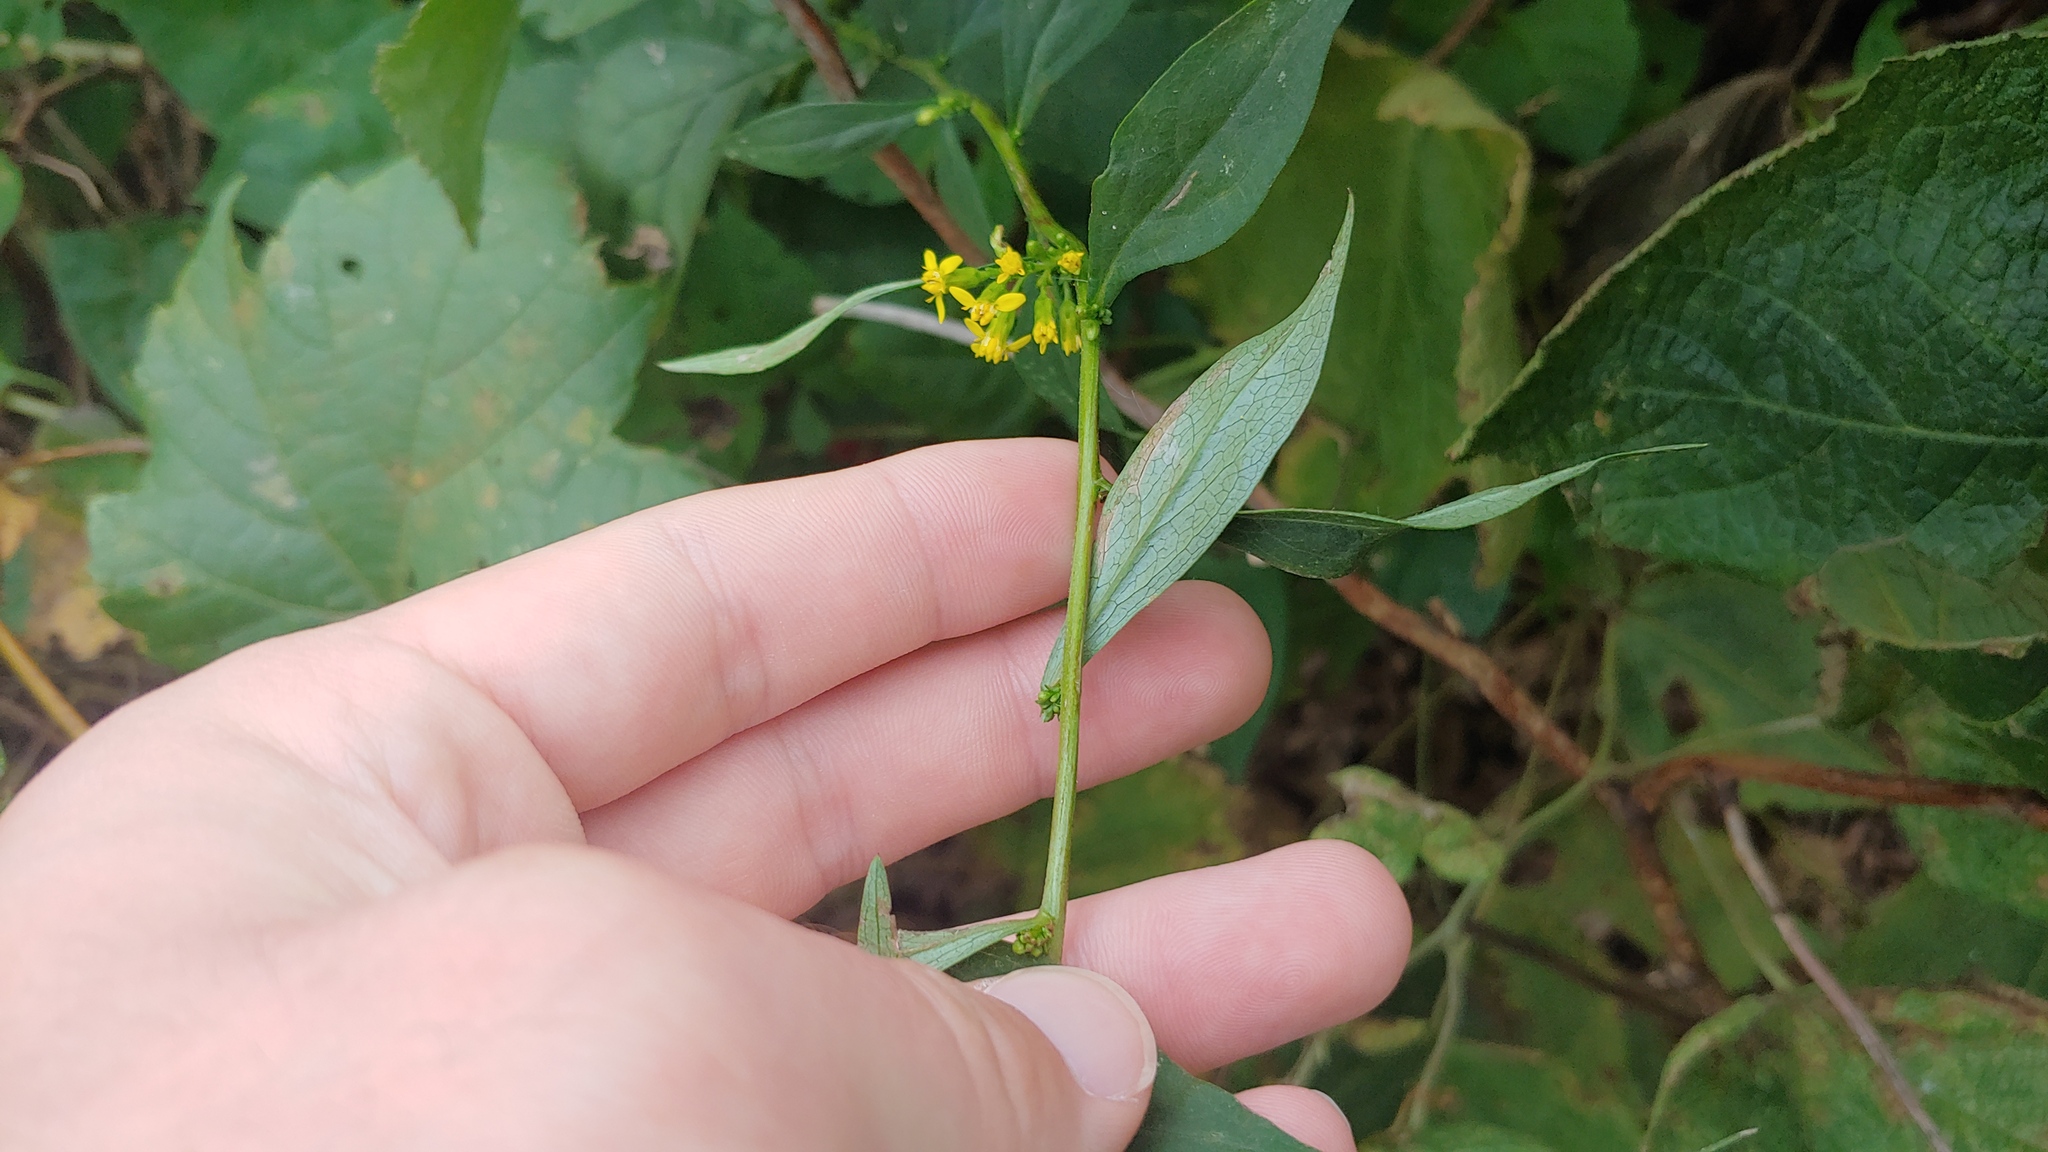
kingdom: Plantae
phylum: Tracheophyta
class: Magnoliopsida
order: Asterales
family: Asteraceae
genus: Solidago
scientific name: Solidago flexicaulis
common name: Zig-zag goldenrod
